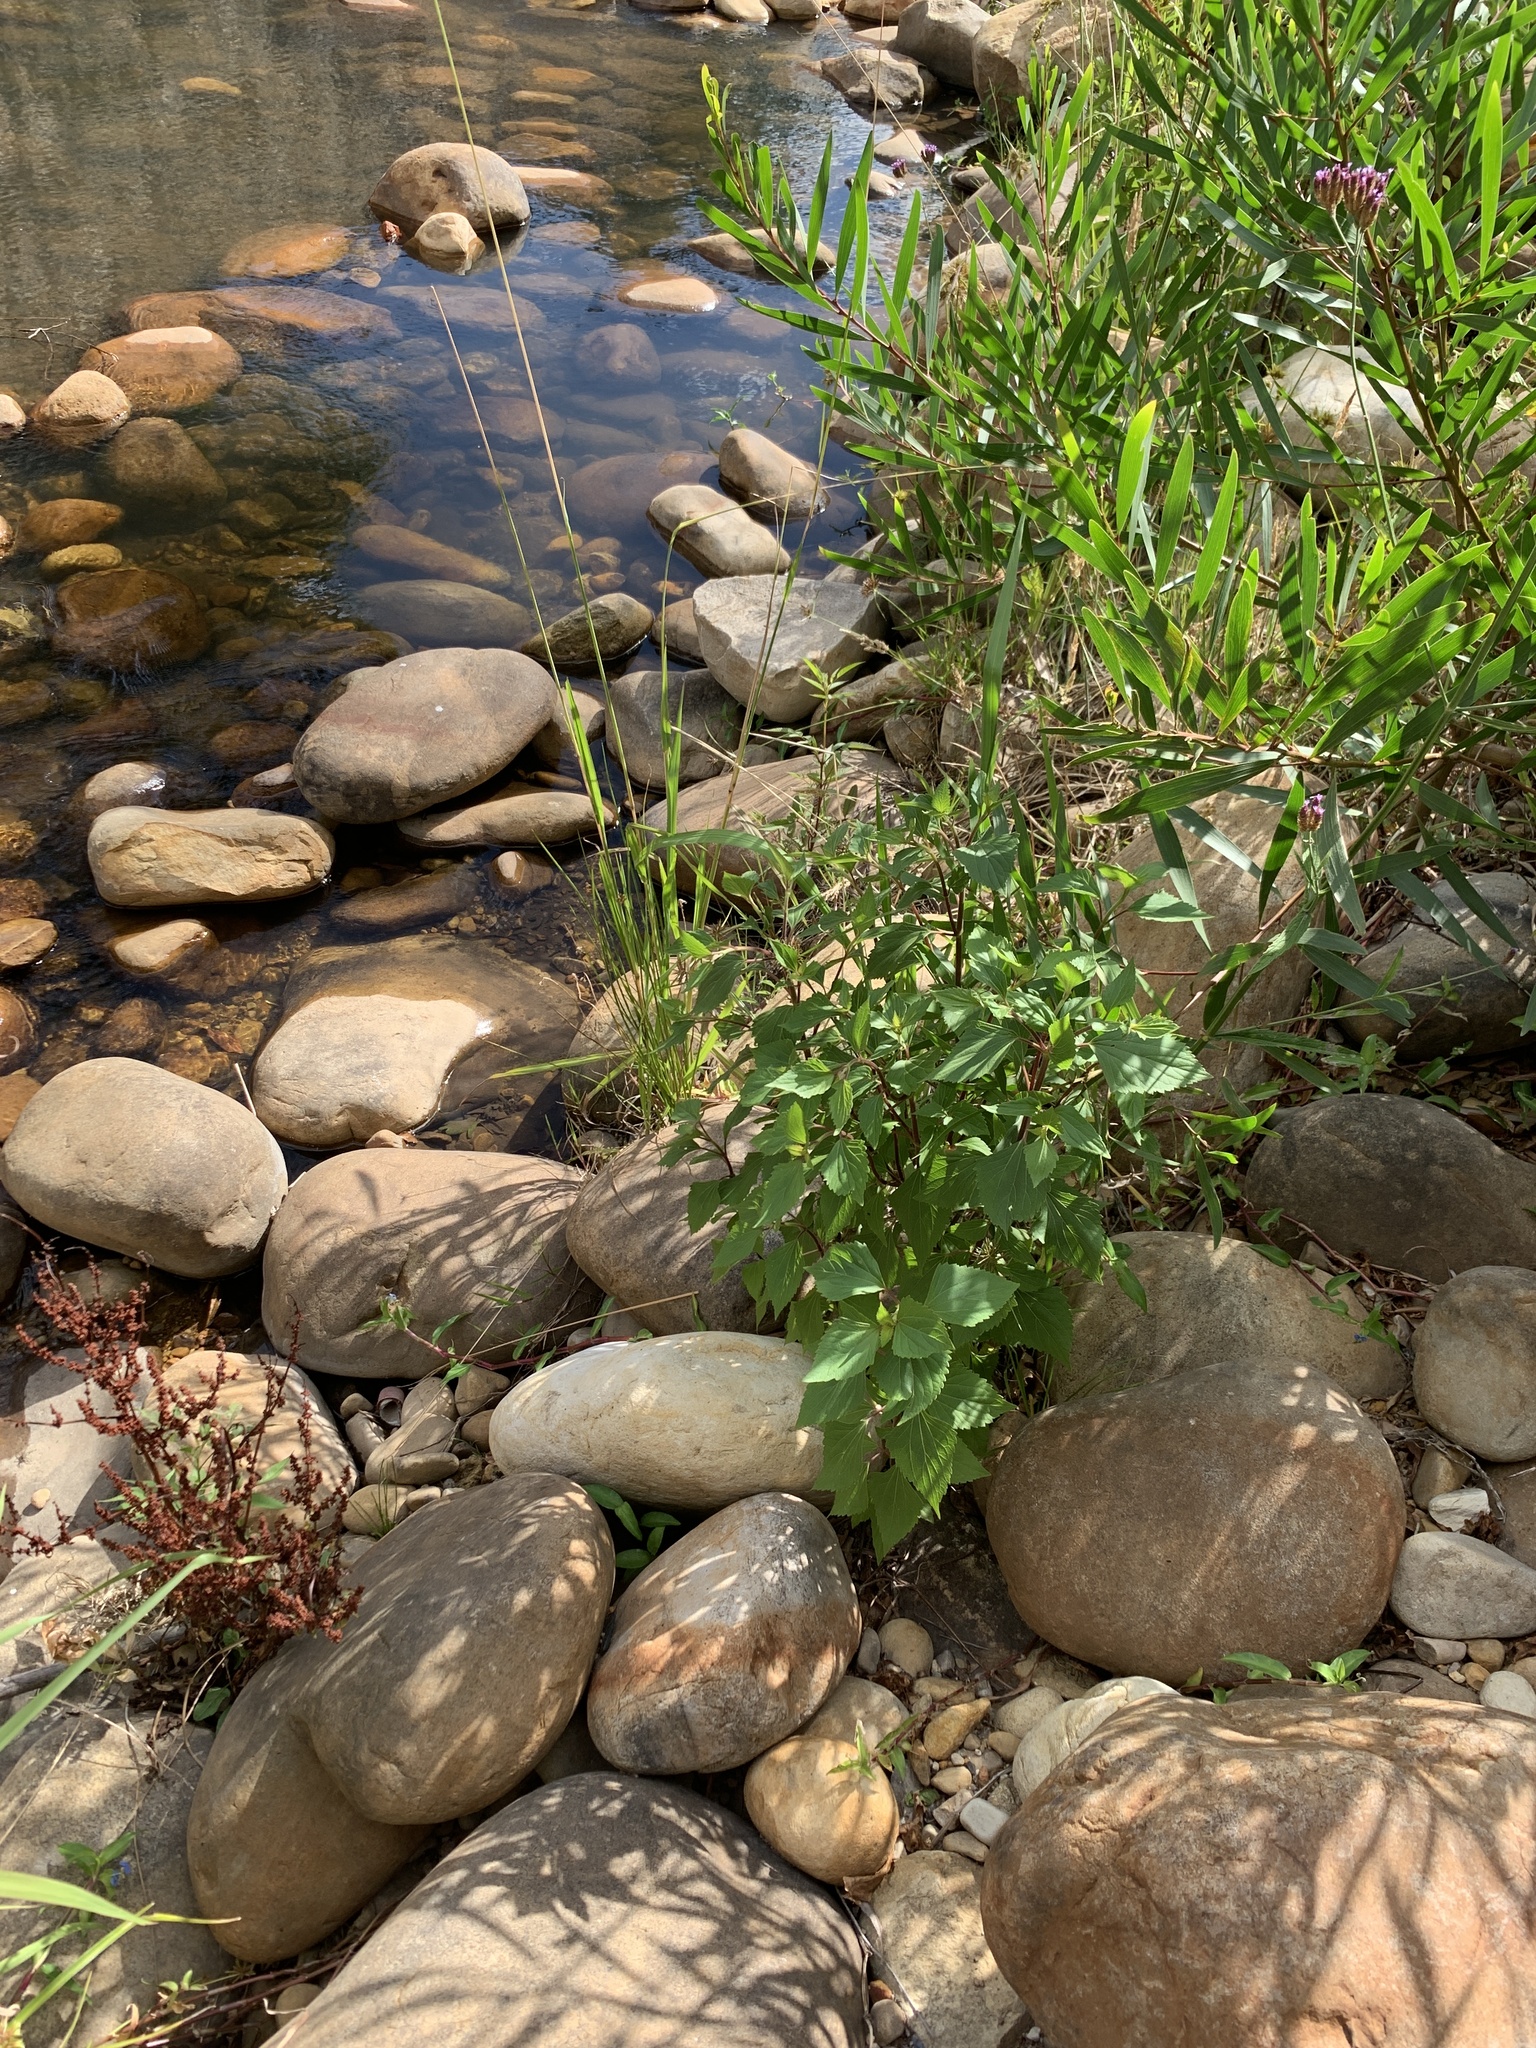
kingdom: Plantae
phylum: Tracheophyta
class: Magnoliopsida
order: Asterales
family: Asteraceae
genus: Ageratina
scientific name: Ageratina adenophora
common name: Sticky snakeroot
